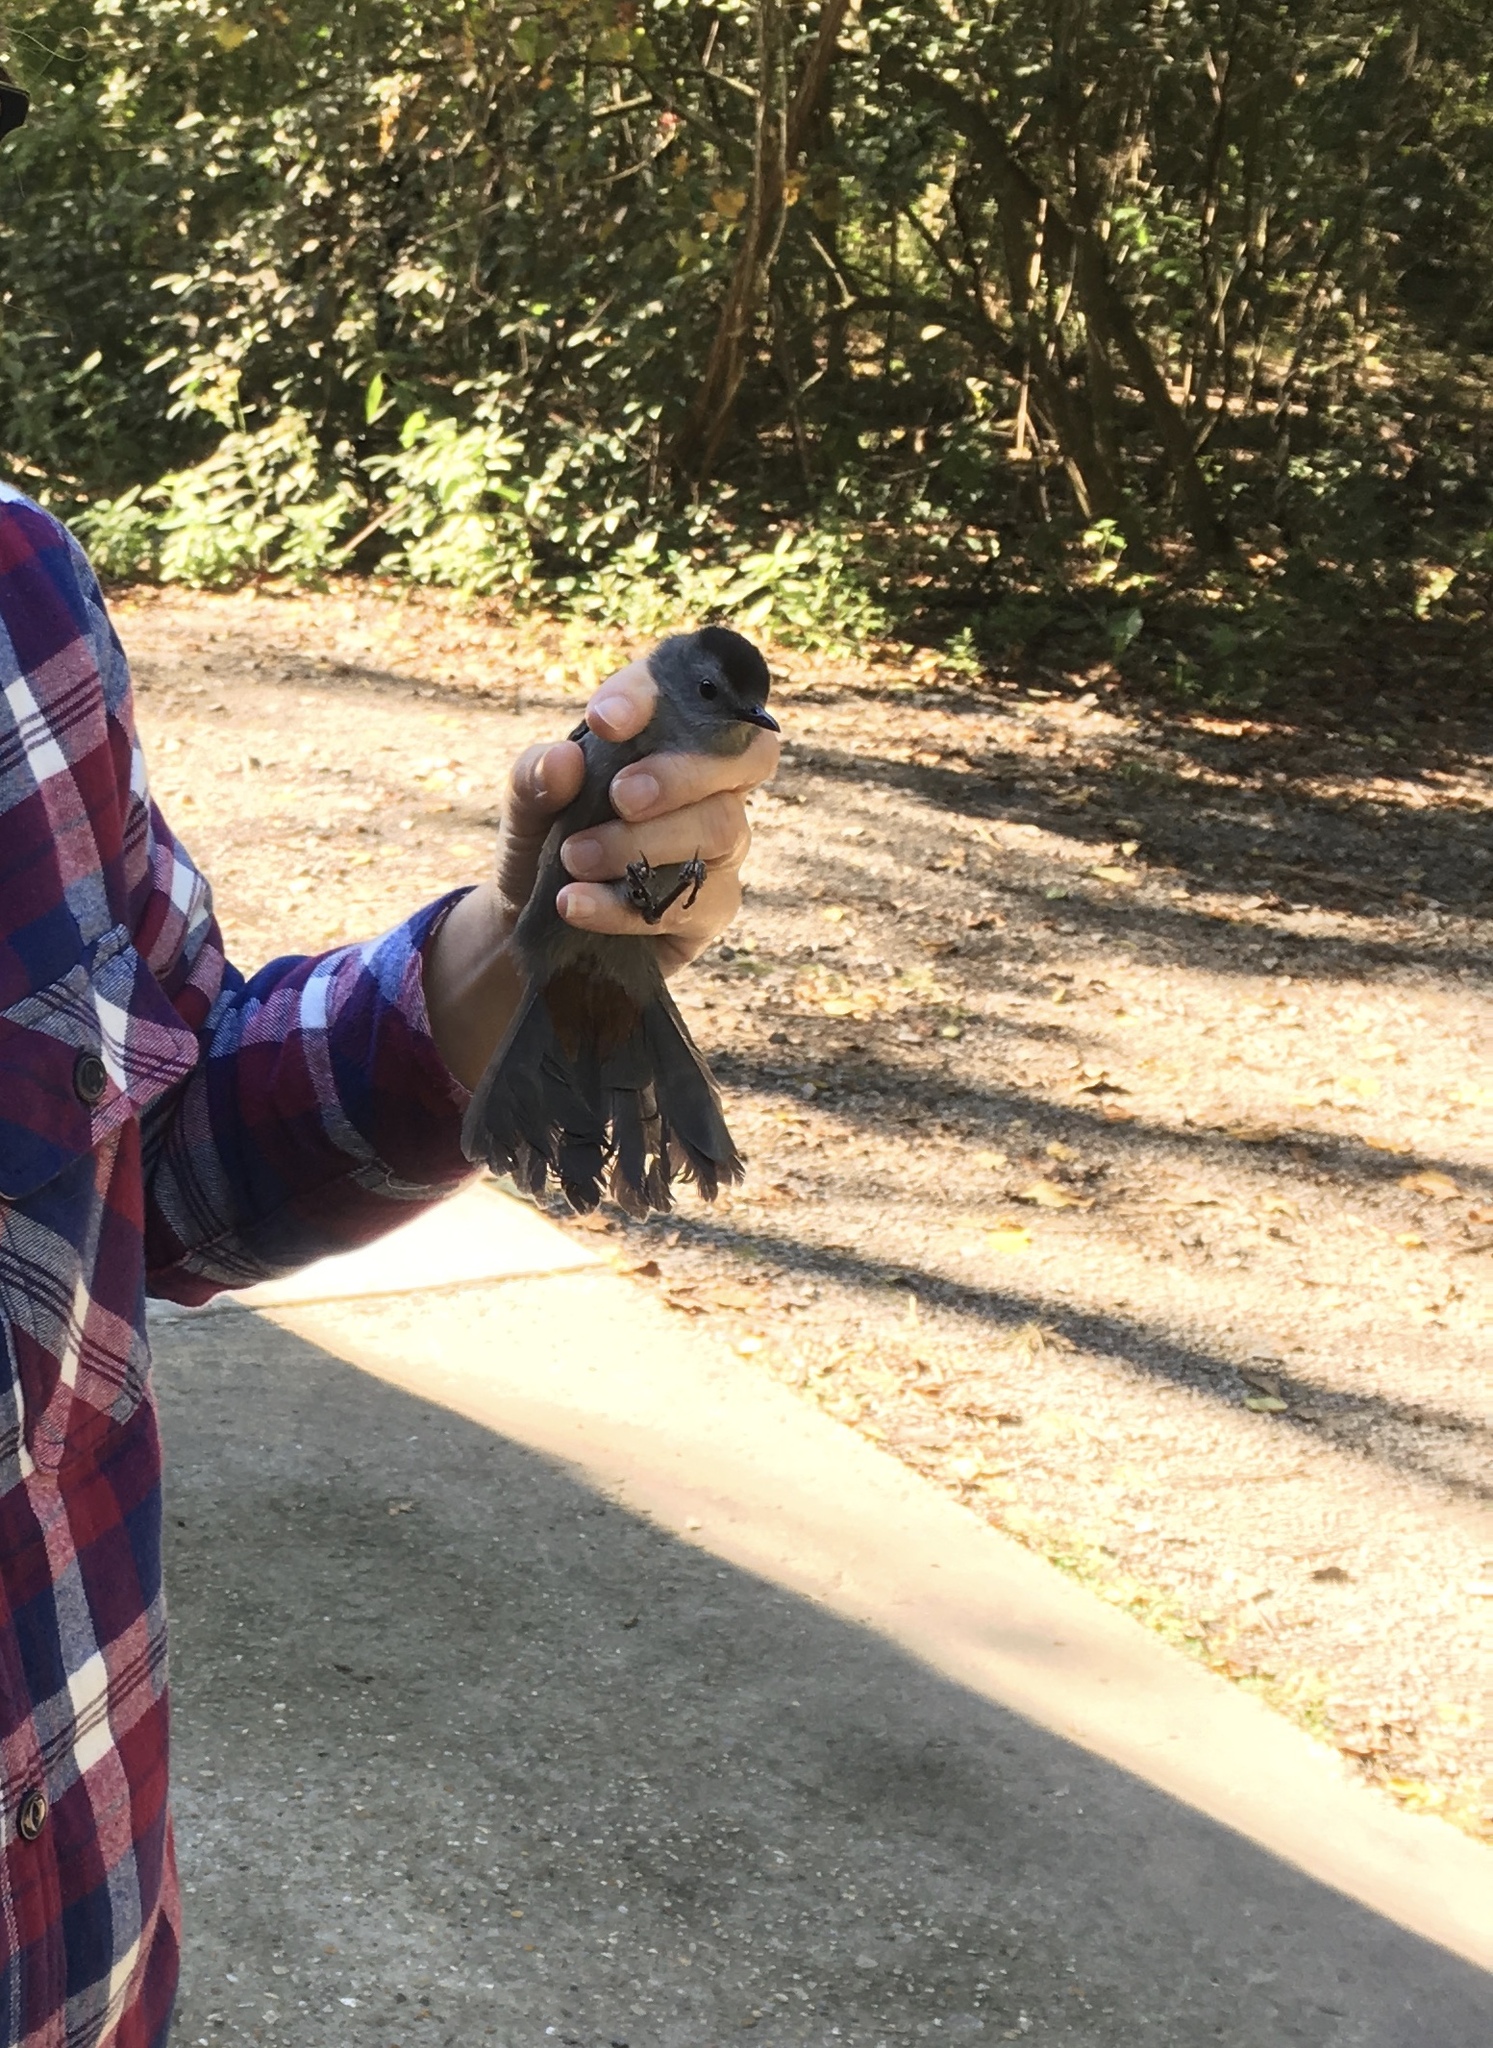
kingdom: Animalia
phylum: Chordata
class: Aves
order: Passeriformes
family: Mimidae
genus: Dumetella
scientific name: Dumetella carolinensis
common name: Gray catbird
